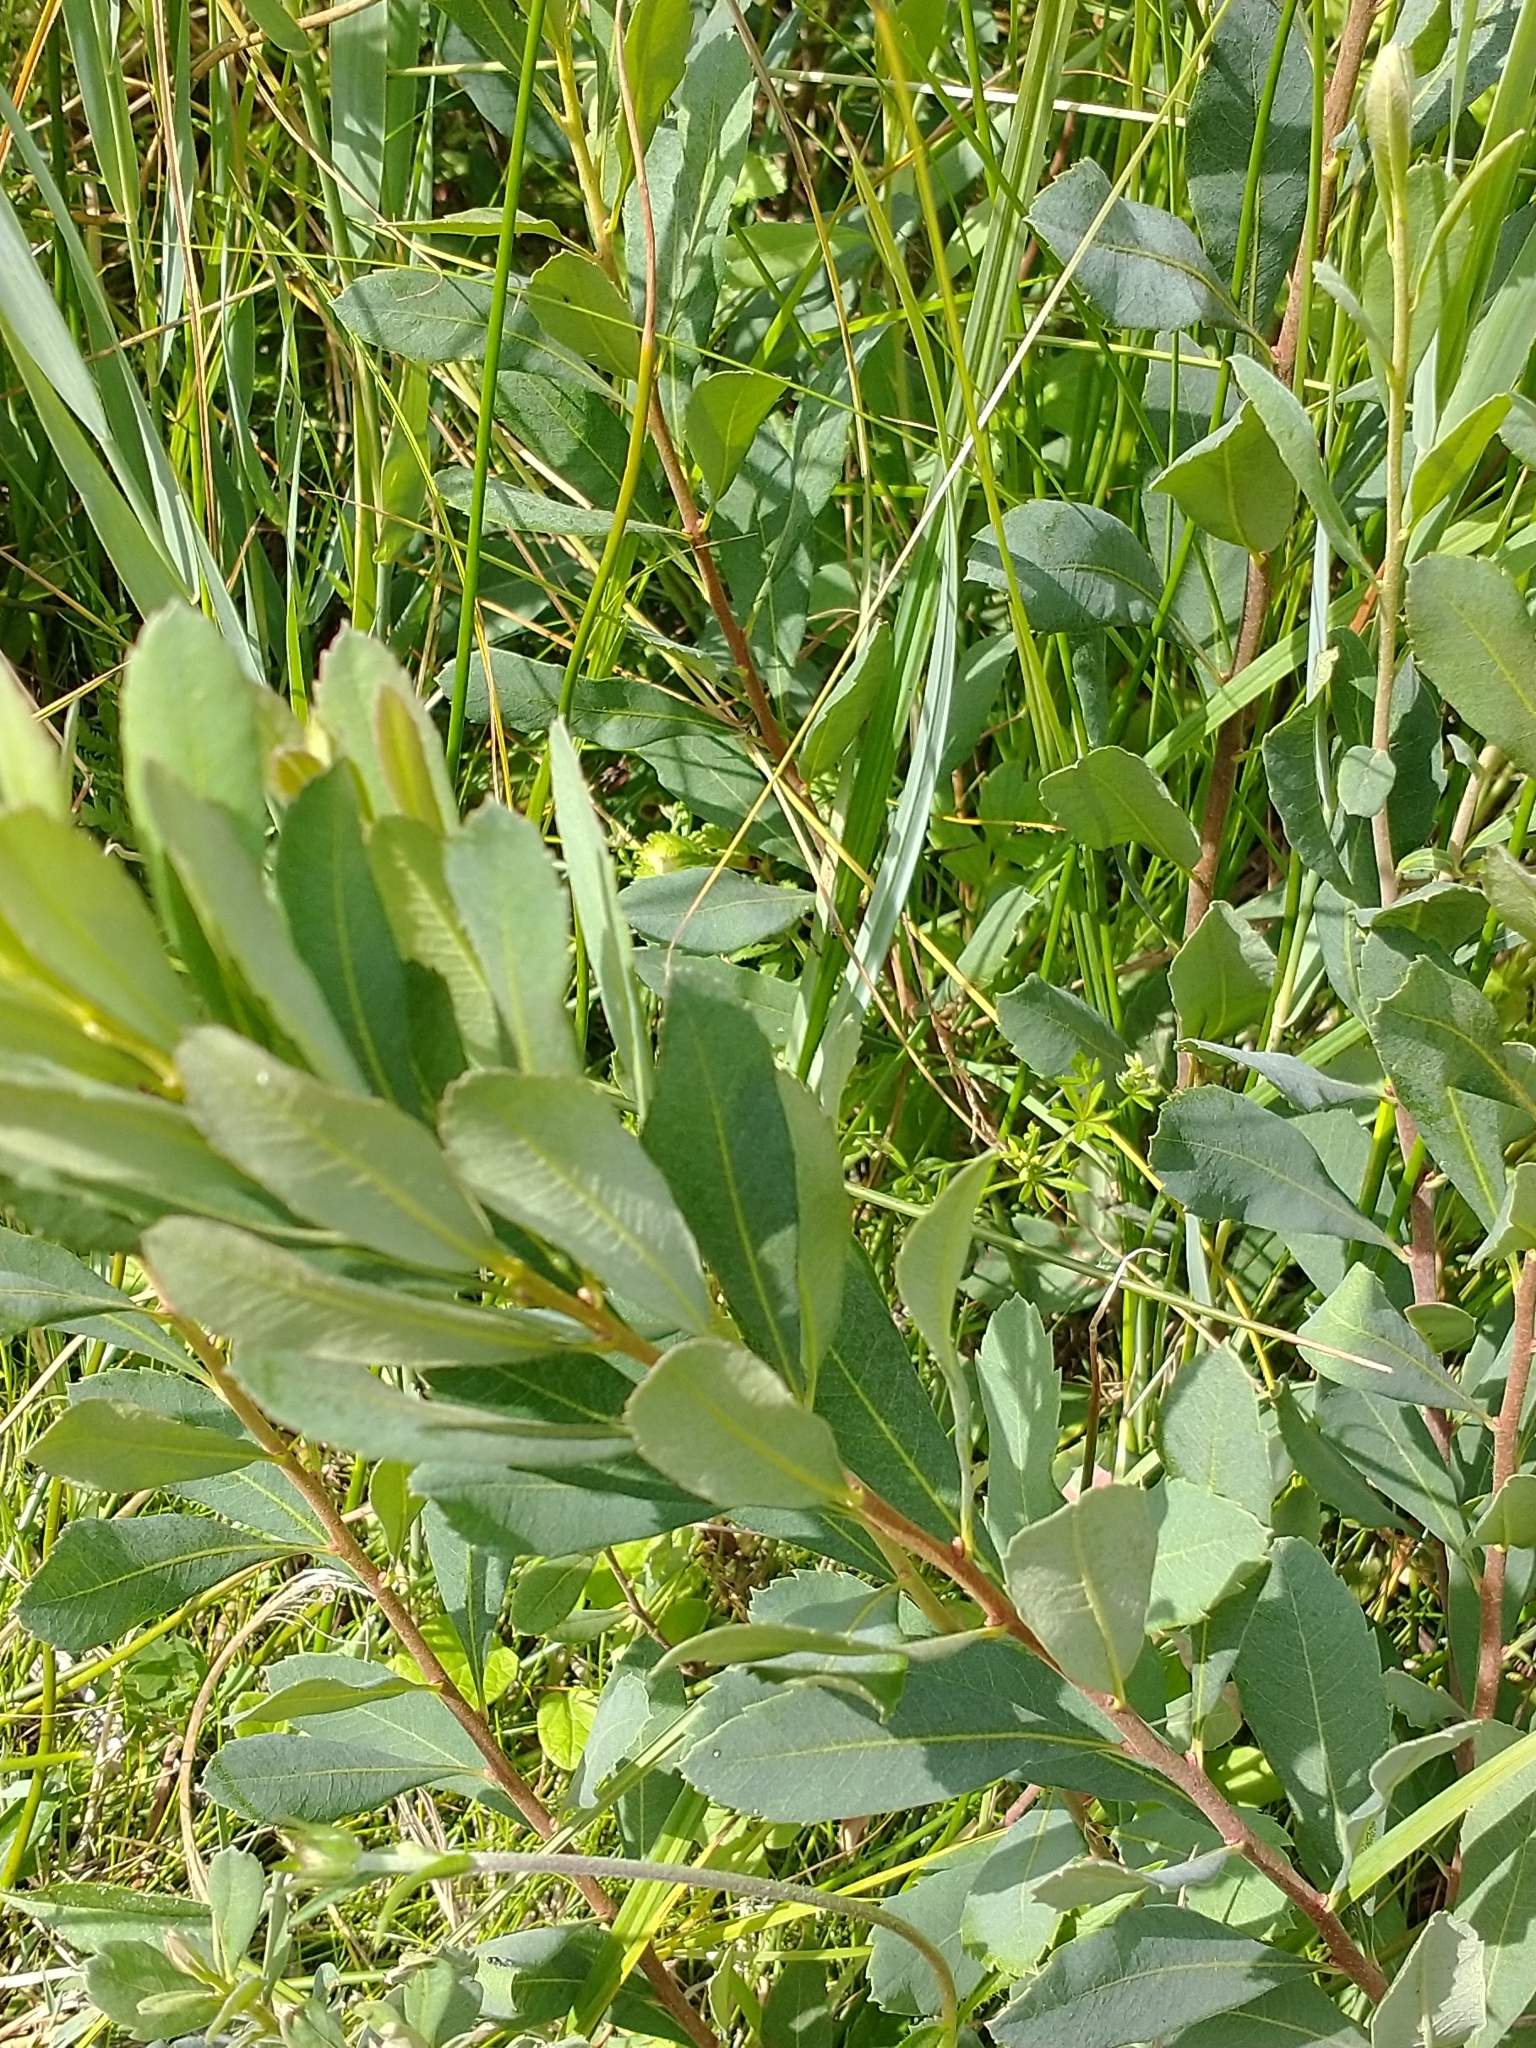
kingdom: Plantae
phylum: Tracheophyta
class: Magnoliopsida
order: Fagales
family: Myricaceae
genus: Myrica
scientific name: Myrica gale
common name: Sweet gale
